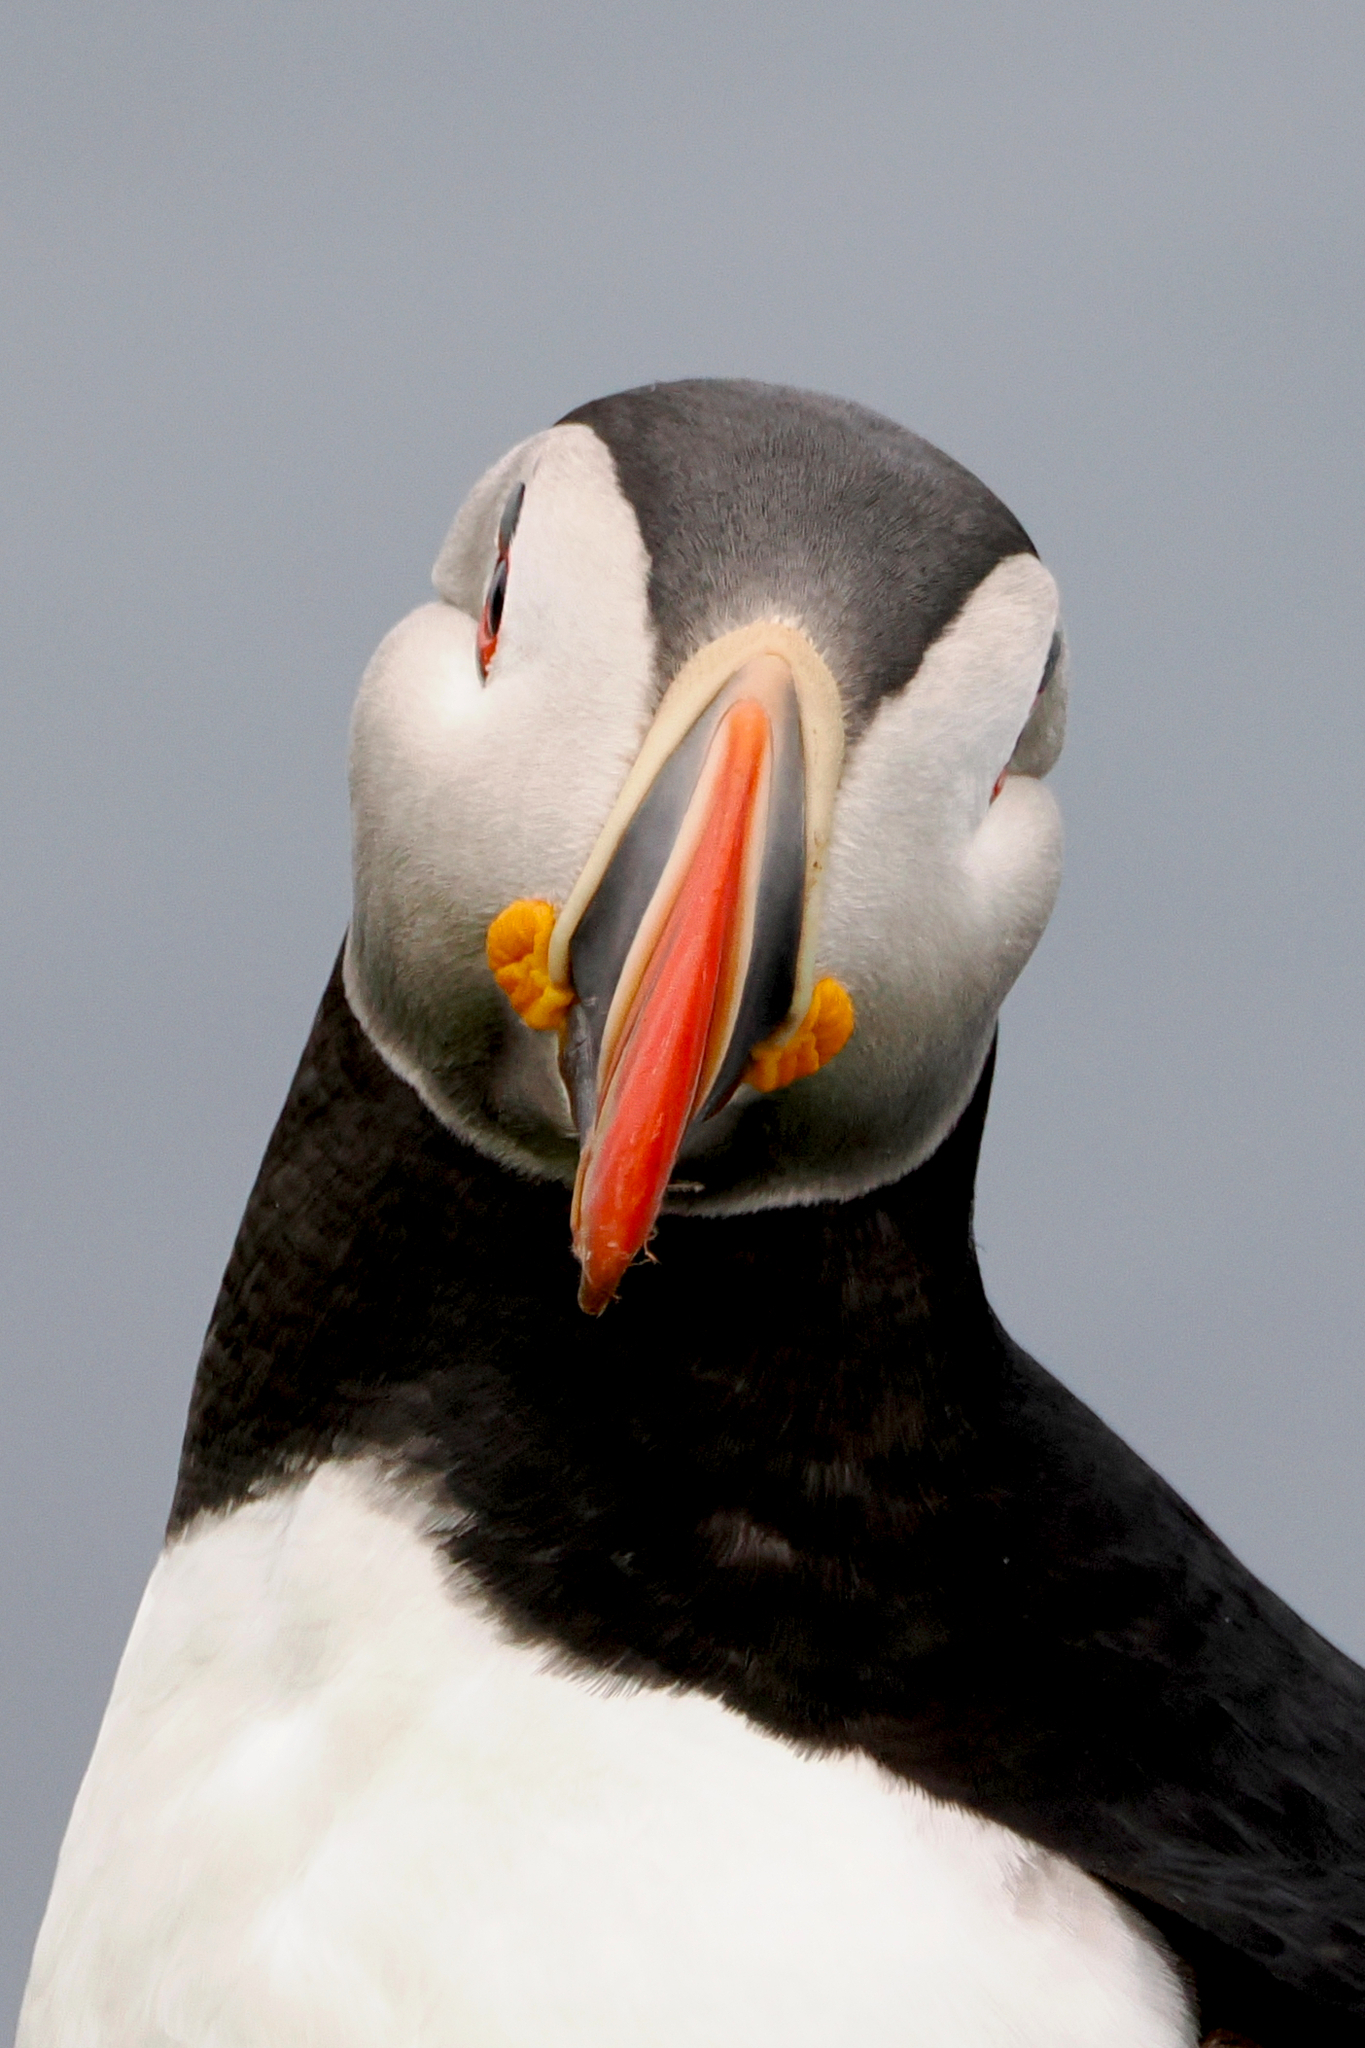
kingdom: Animalia
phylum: Chordata
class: Aves
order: Charadriiformes
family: Alcidae
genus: Fratercula
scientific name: Fratercula arctica
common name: Atlantic puffin
